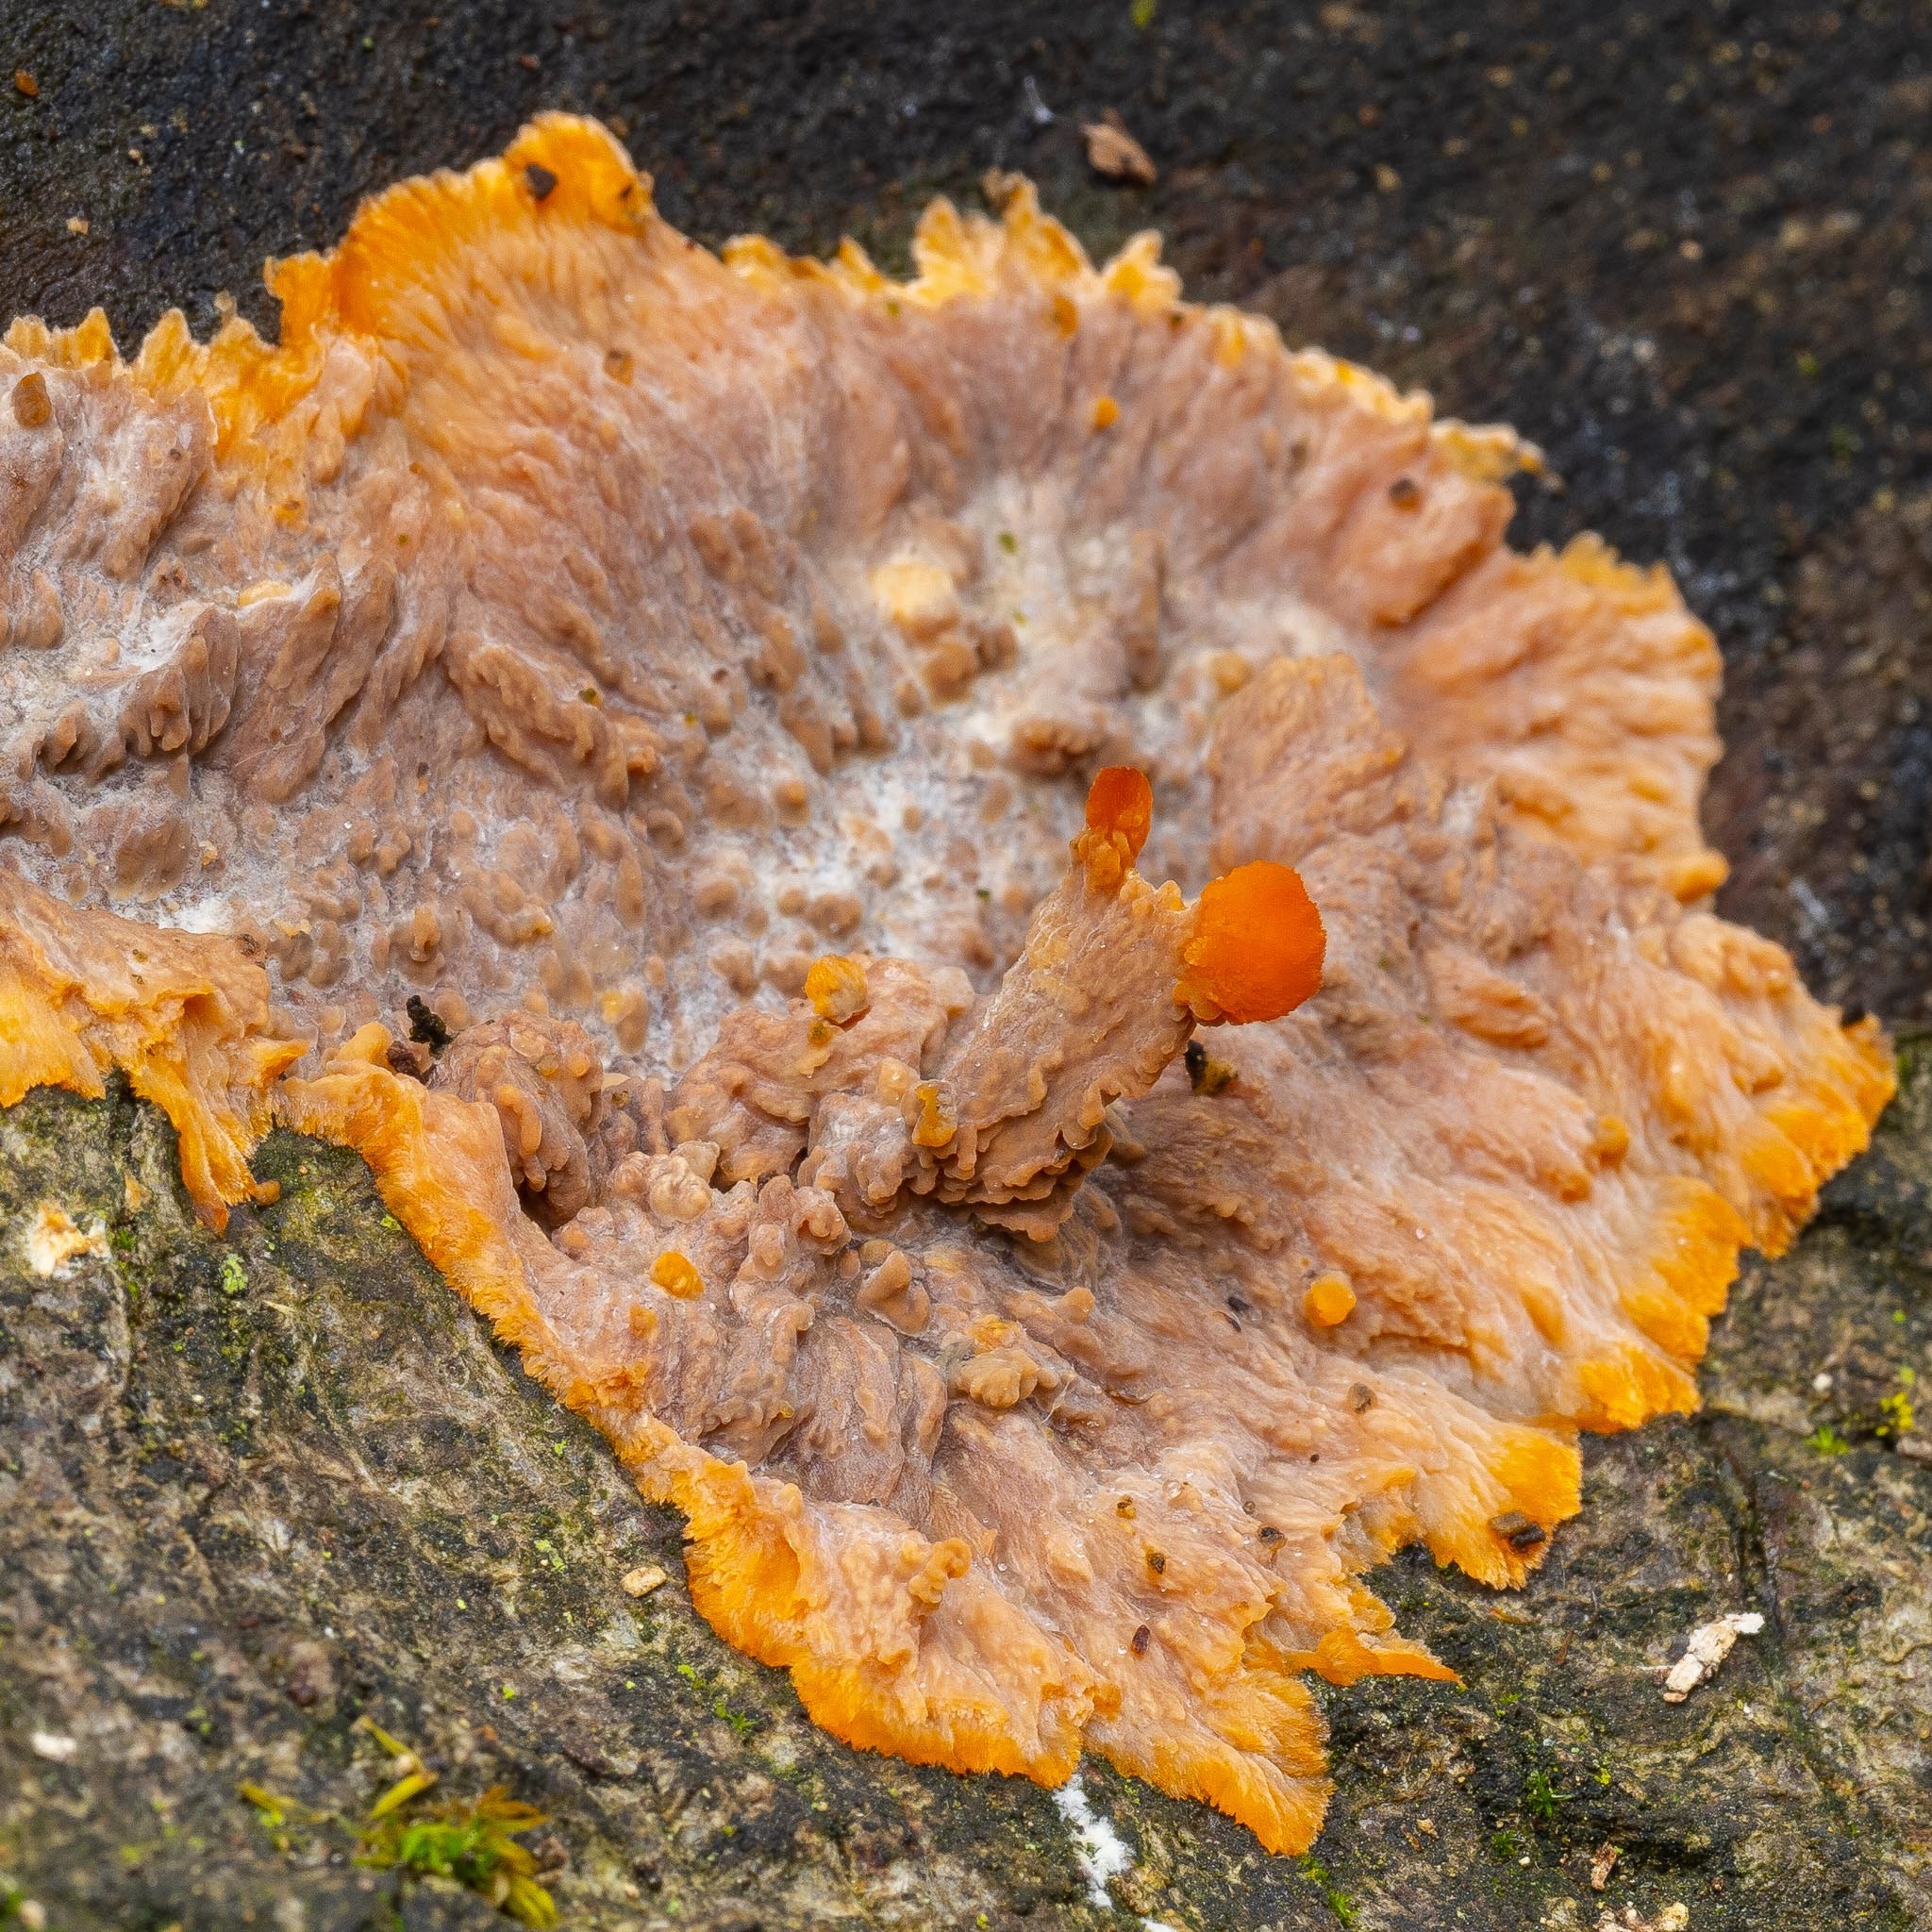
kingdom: Fungi
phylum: Basidiomycota
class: Agaricomycetes
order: Polyporales
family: Meruliaceae
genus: Phlebia
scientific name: Phlebia radiata
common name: Wrinkled crust
